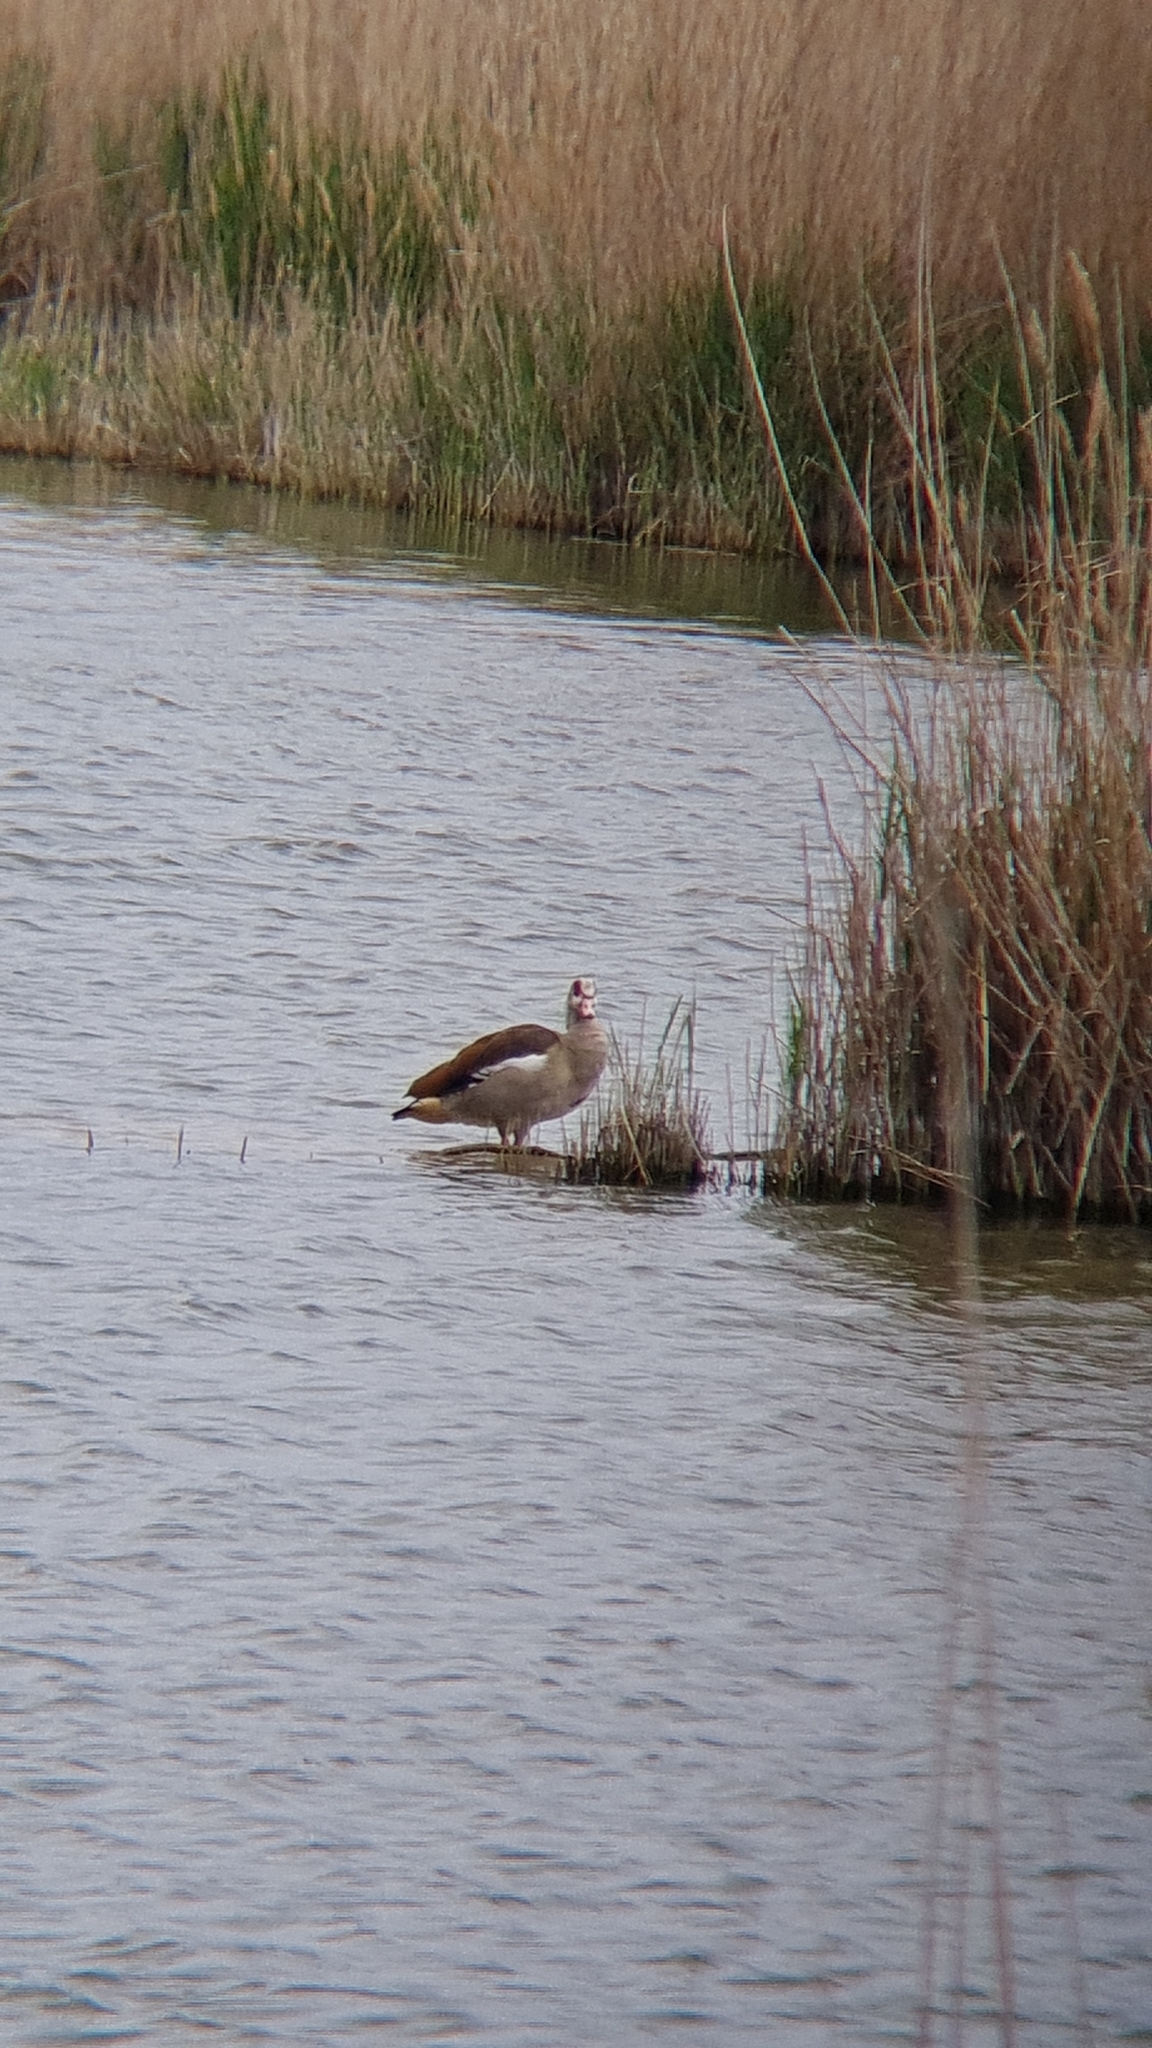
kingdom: Animalia
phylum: Chordata
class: Aves
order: Anseriformes
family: Anatidae
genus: Alopochen
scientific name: Alopochen aegyptiaca
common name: Egyptian goose
